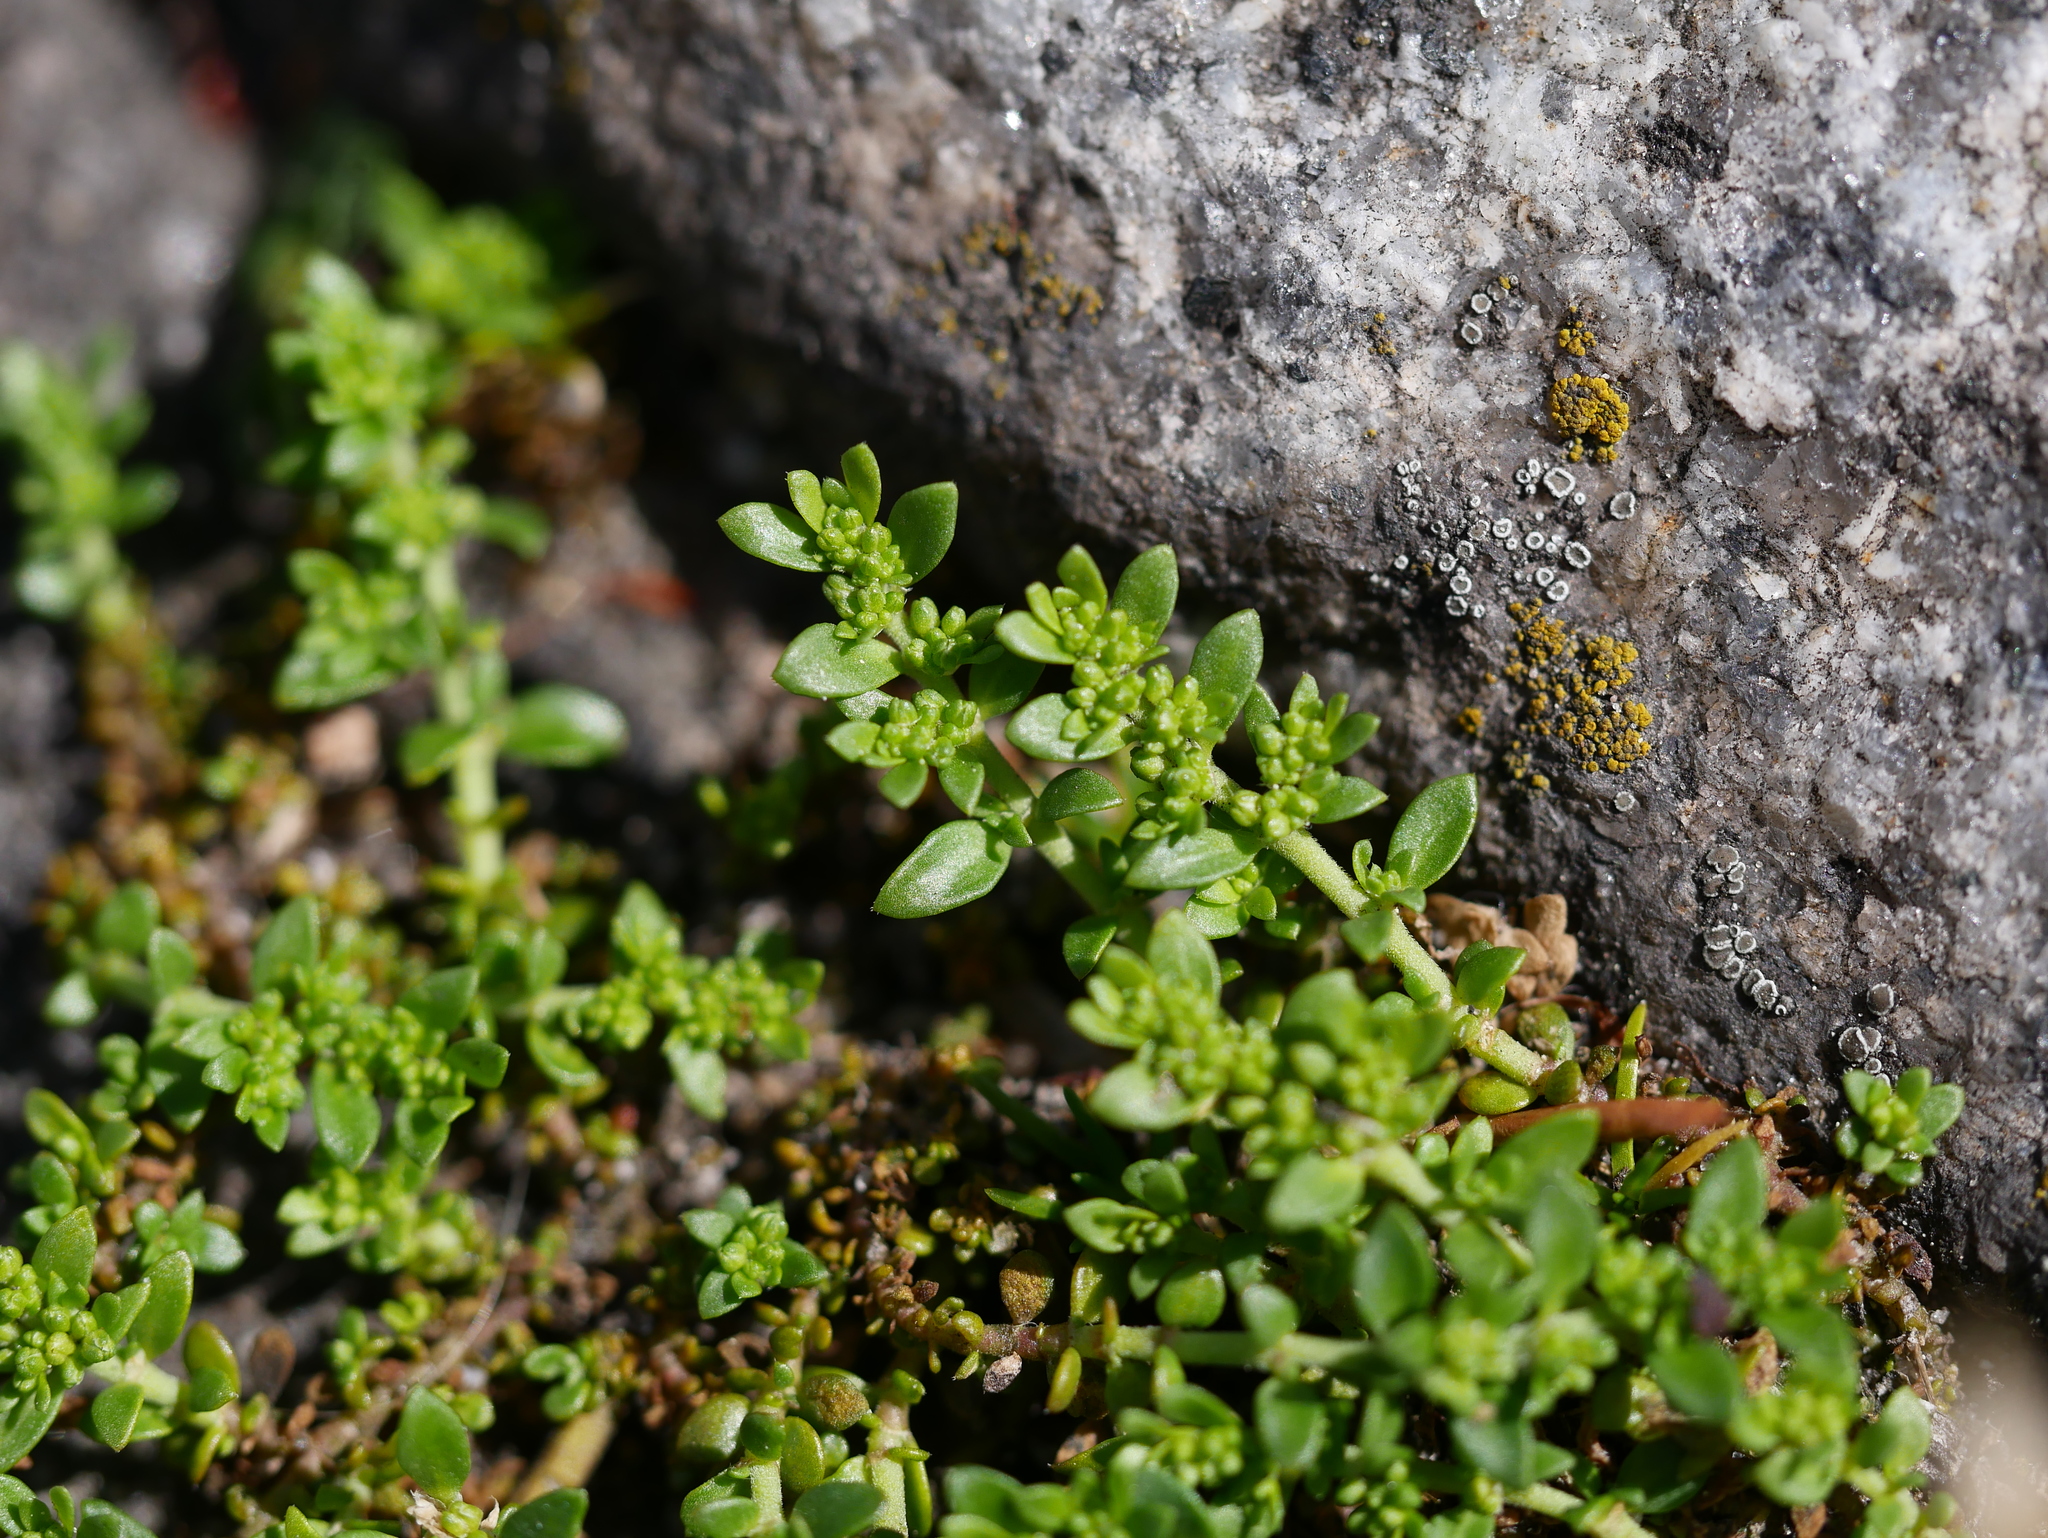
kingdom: Plantae
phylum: Tracheophyta
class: Magnoliopsida
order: Caryophyllales
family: Caryophyllaceae
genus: Herniaria
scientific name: Herniaria glabra
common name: Smooth rupturewort
